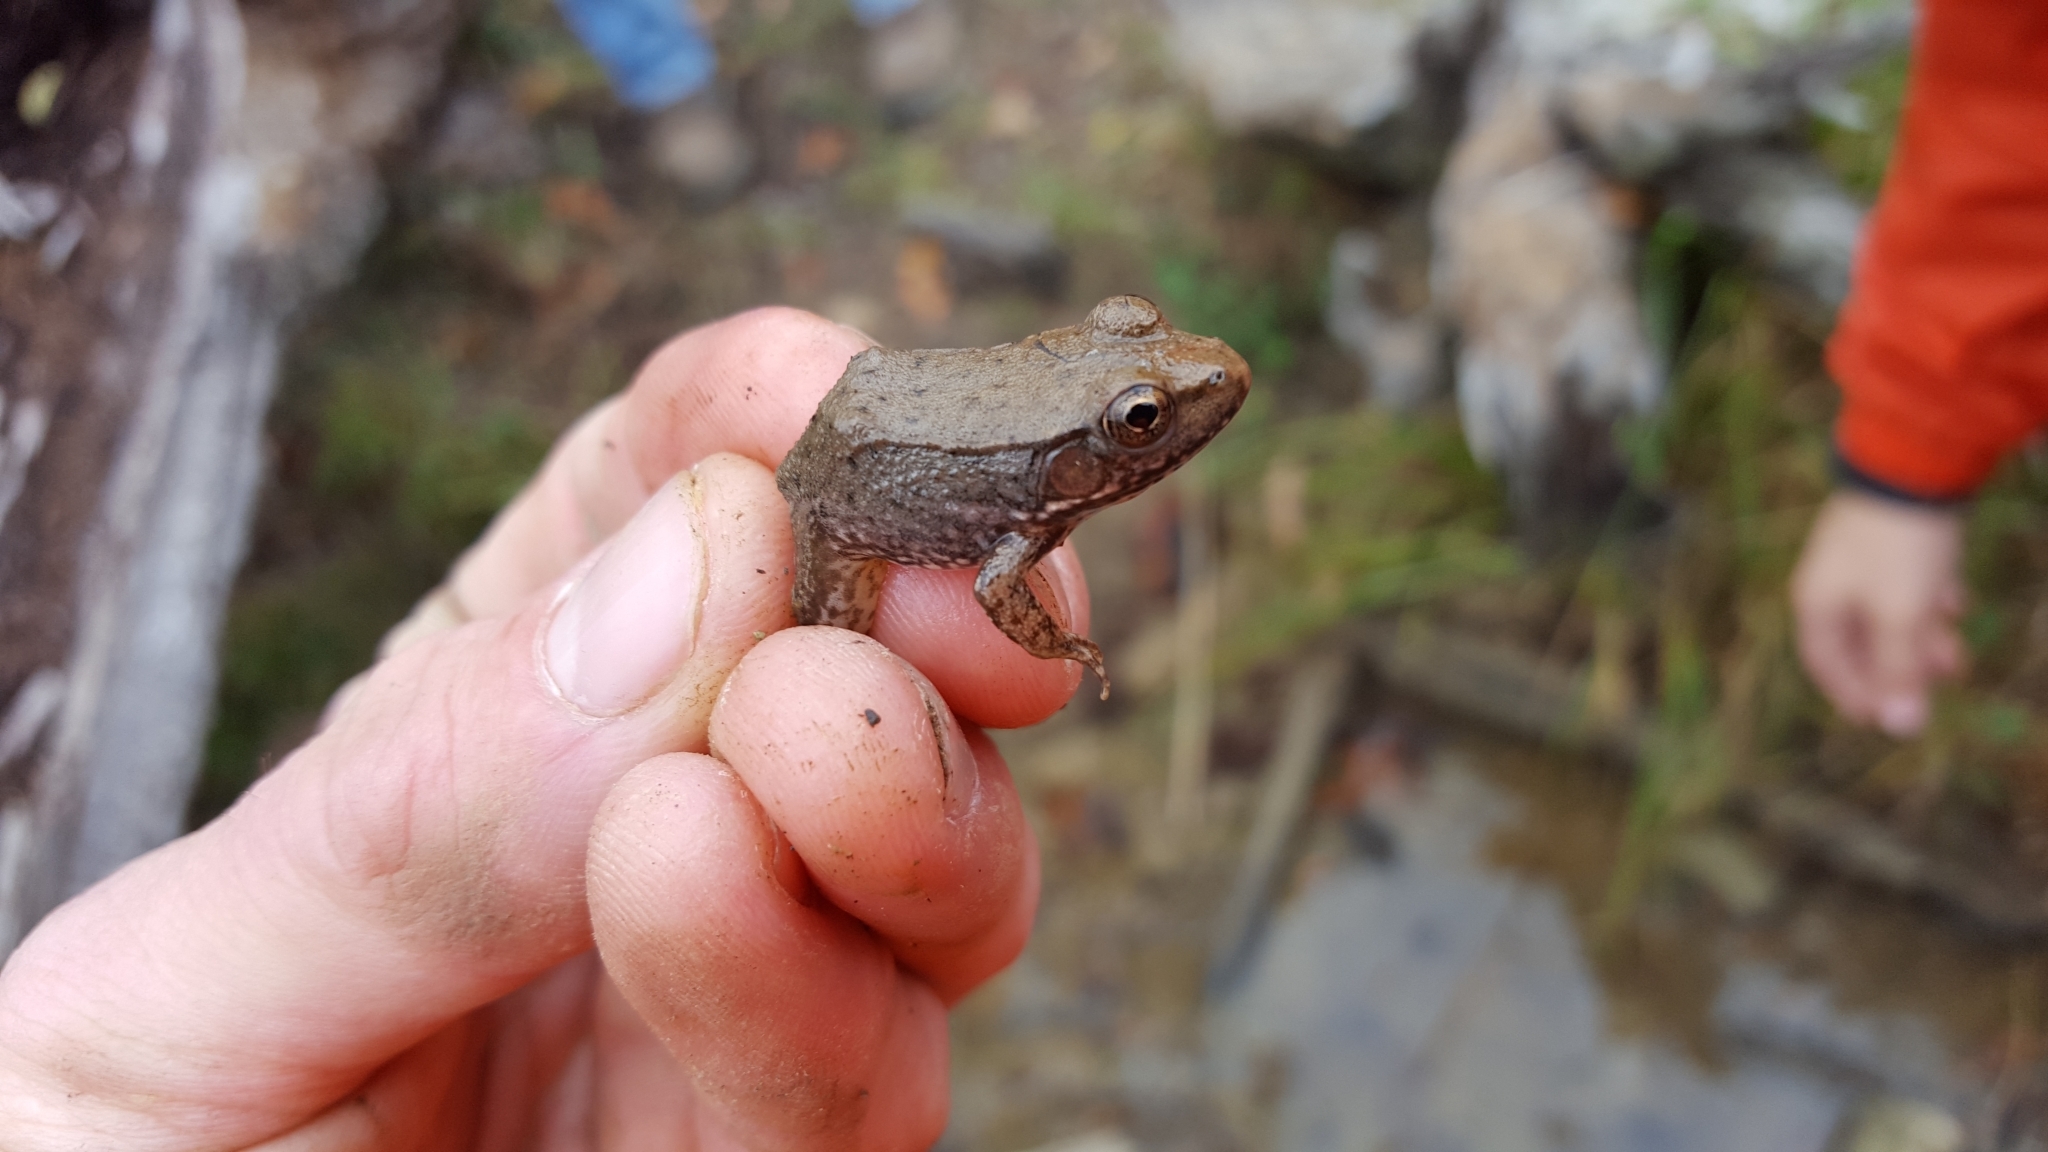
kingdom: Animalia
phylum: Chordata
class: Amphibia
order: Anura
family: Ranidae
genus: Lithobates
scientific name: Lithobates clamitans
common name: Green frog
